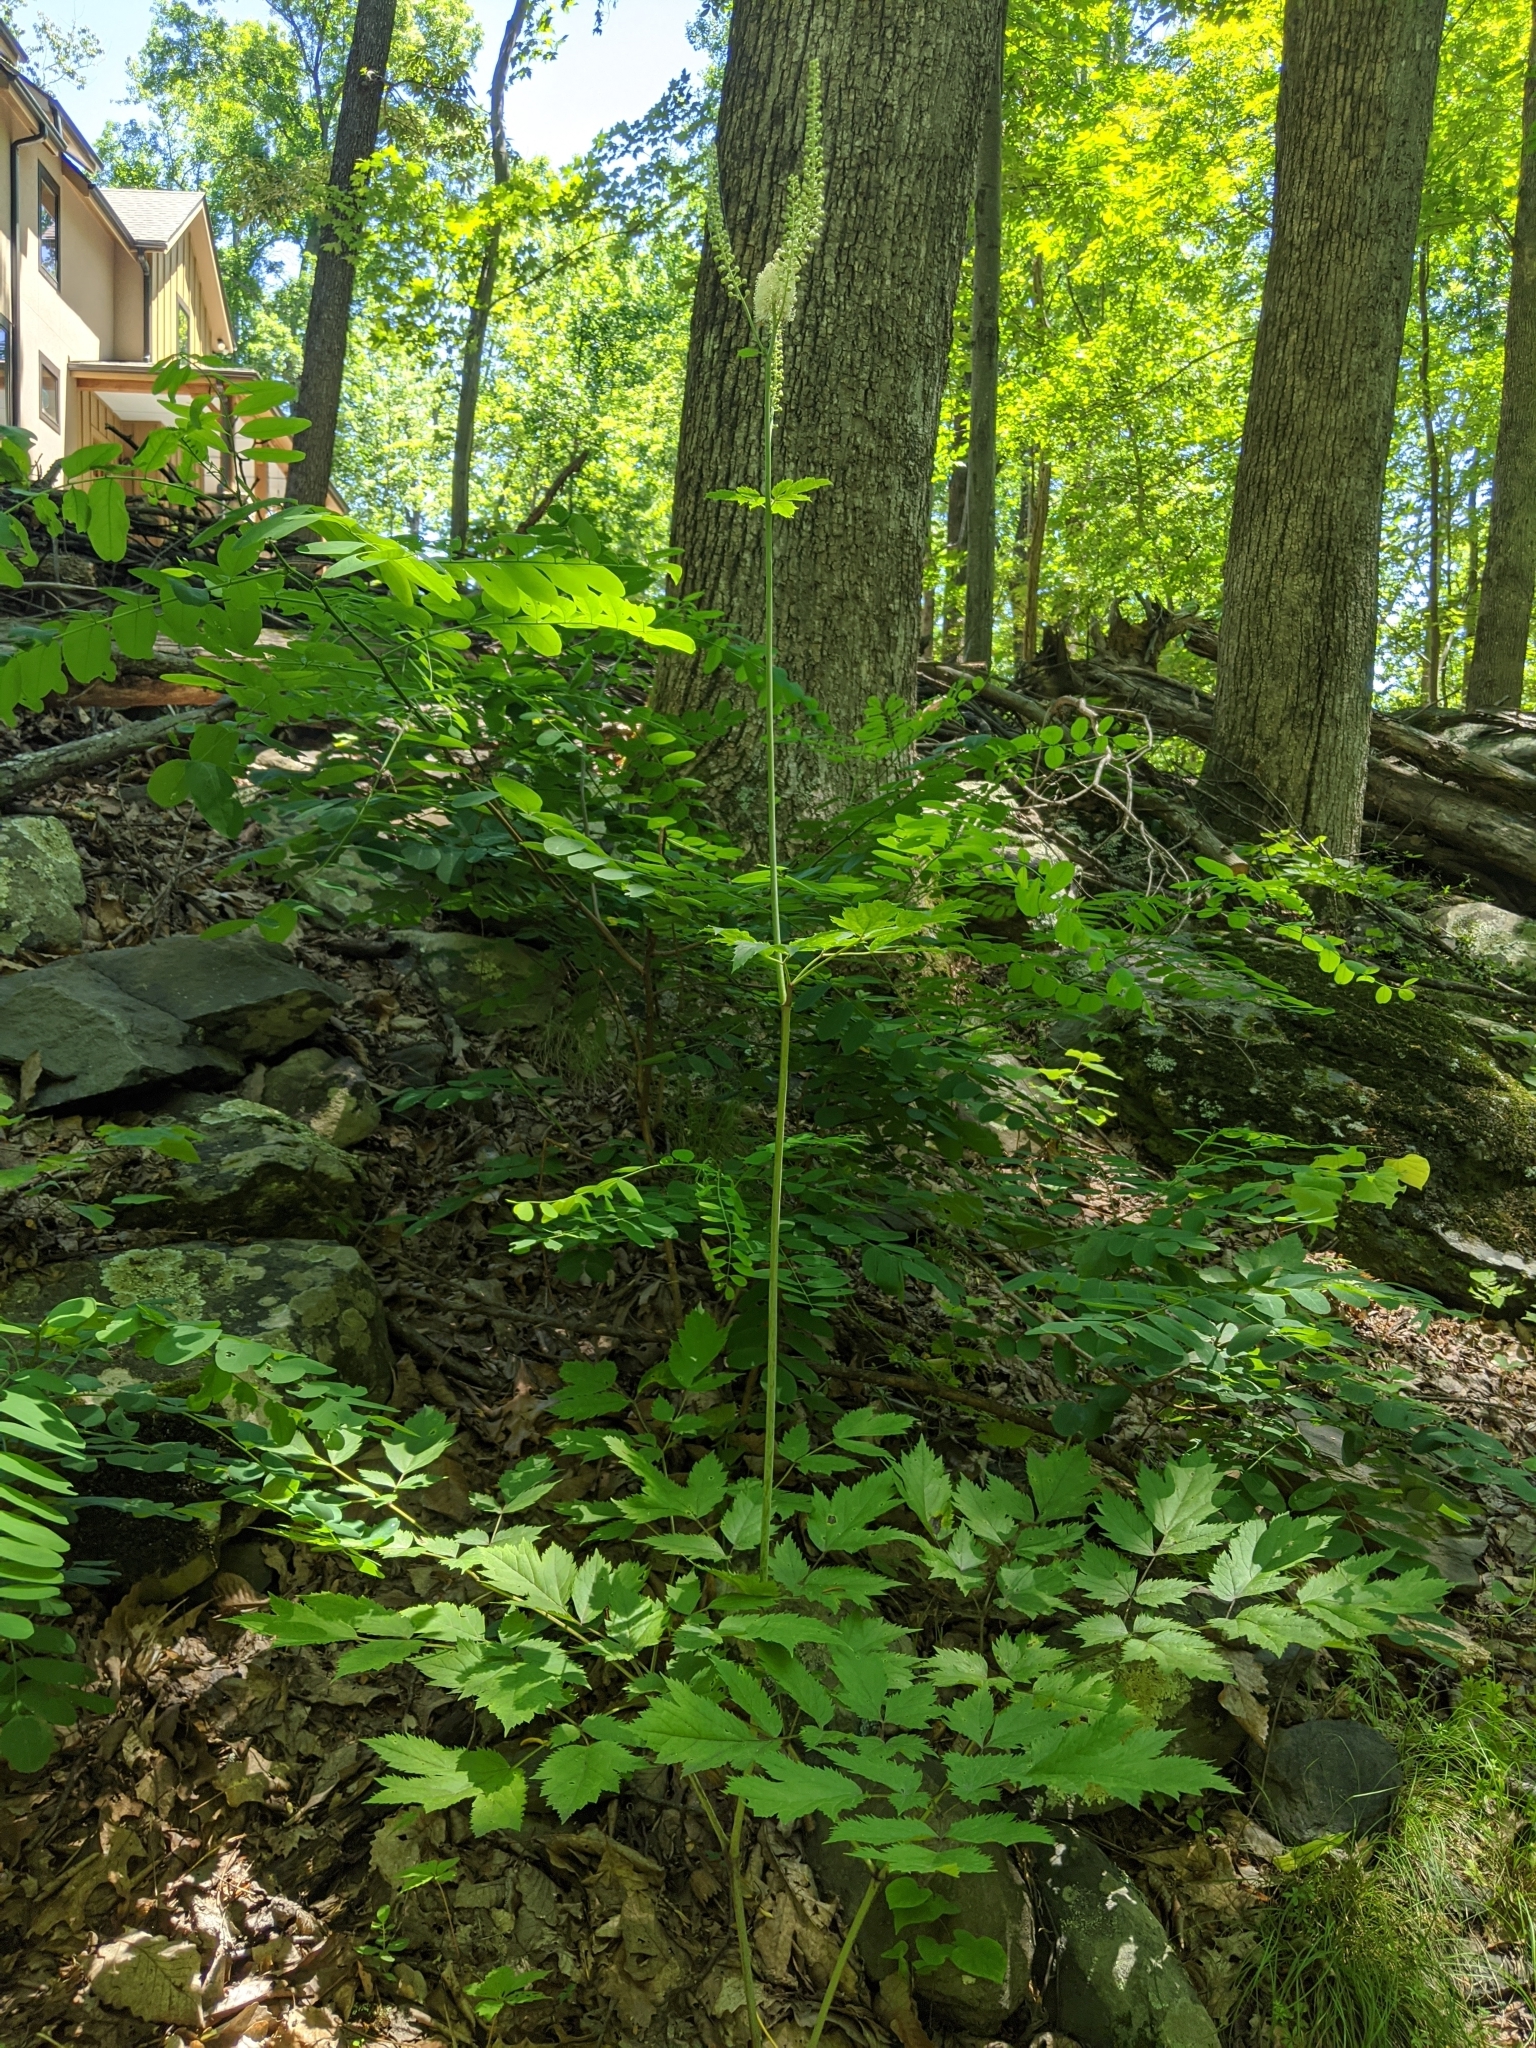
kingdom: Plantae
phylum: Tracheophyta
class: Magnoliopsida
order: Ranunculales
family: Ranunculaceae
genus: Actaea
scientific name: Actaea racemosa
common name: Black cohosh
